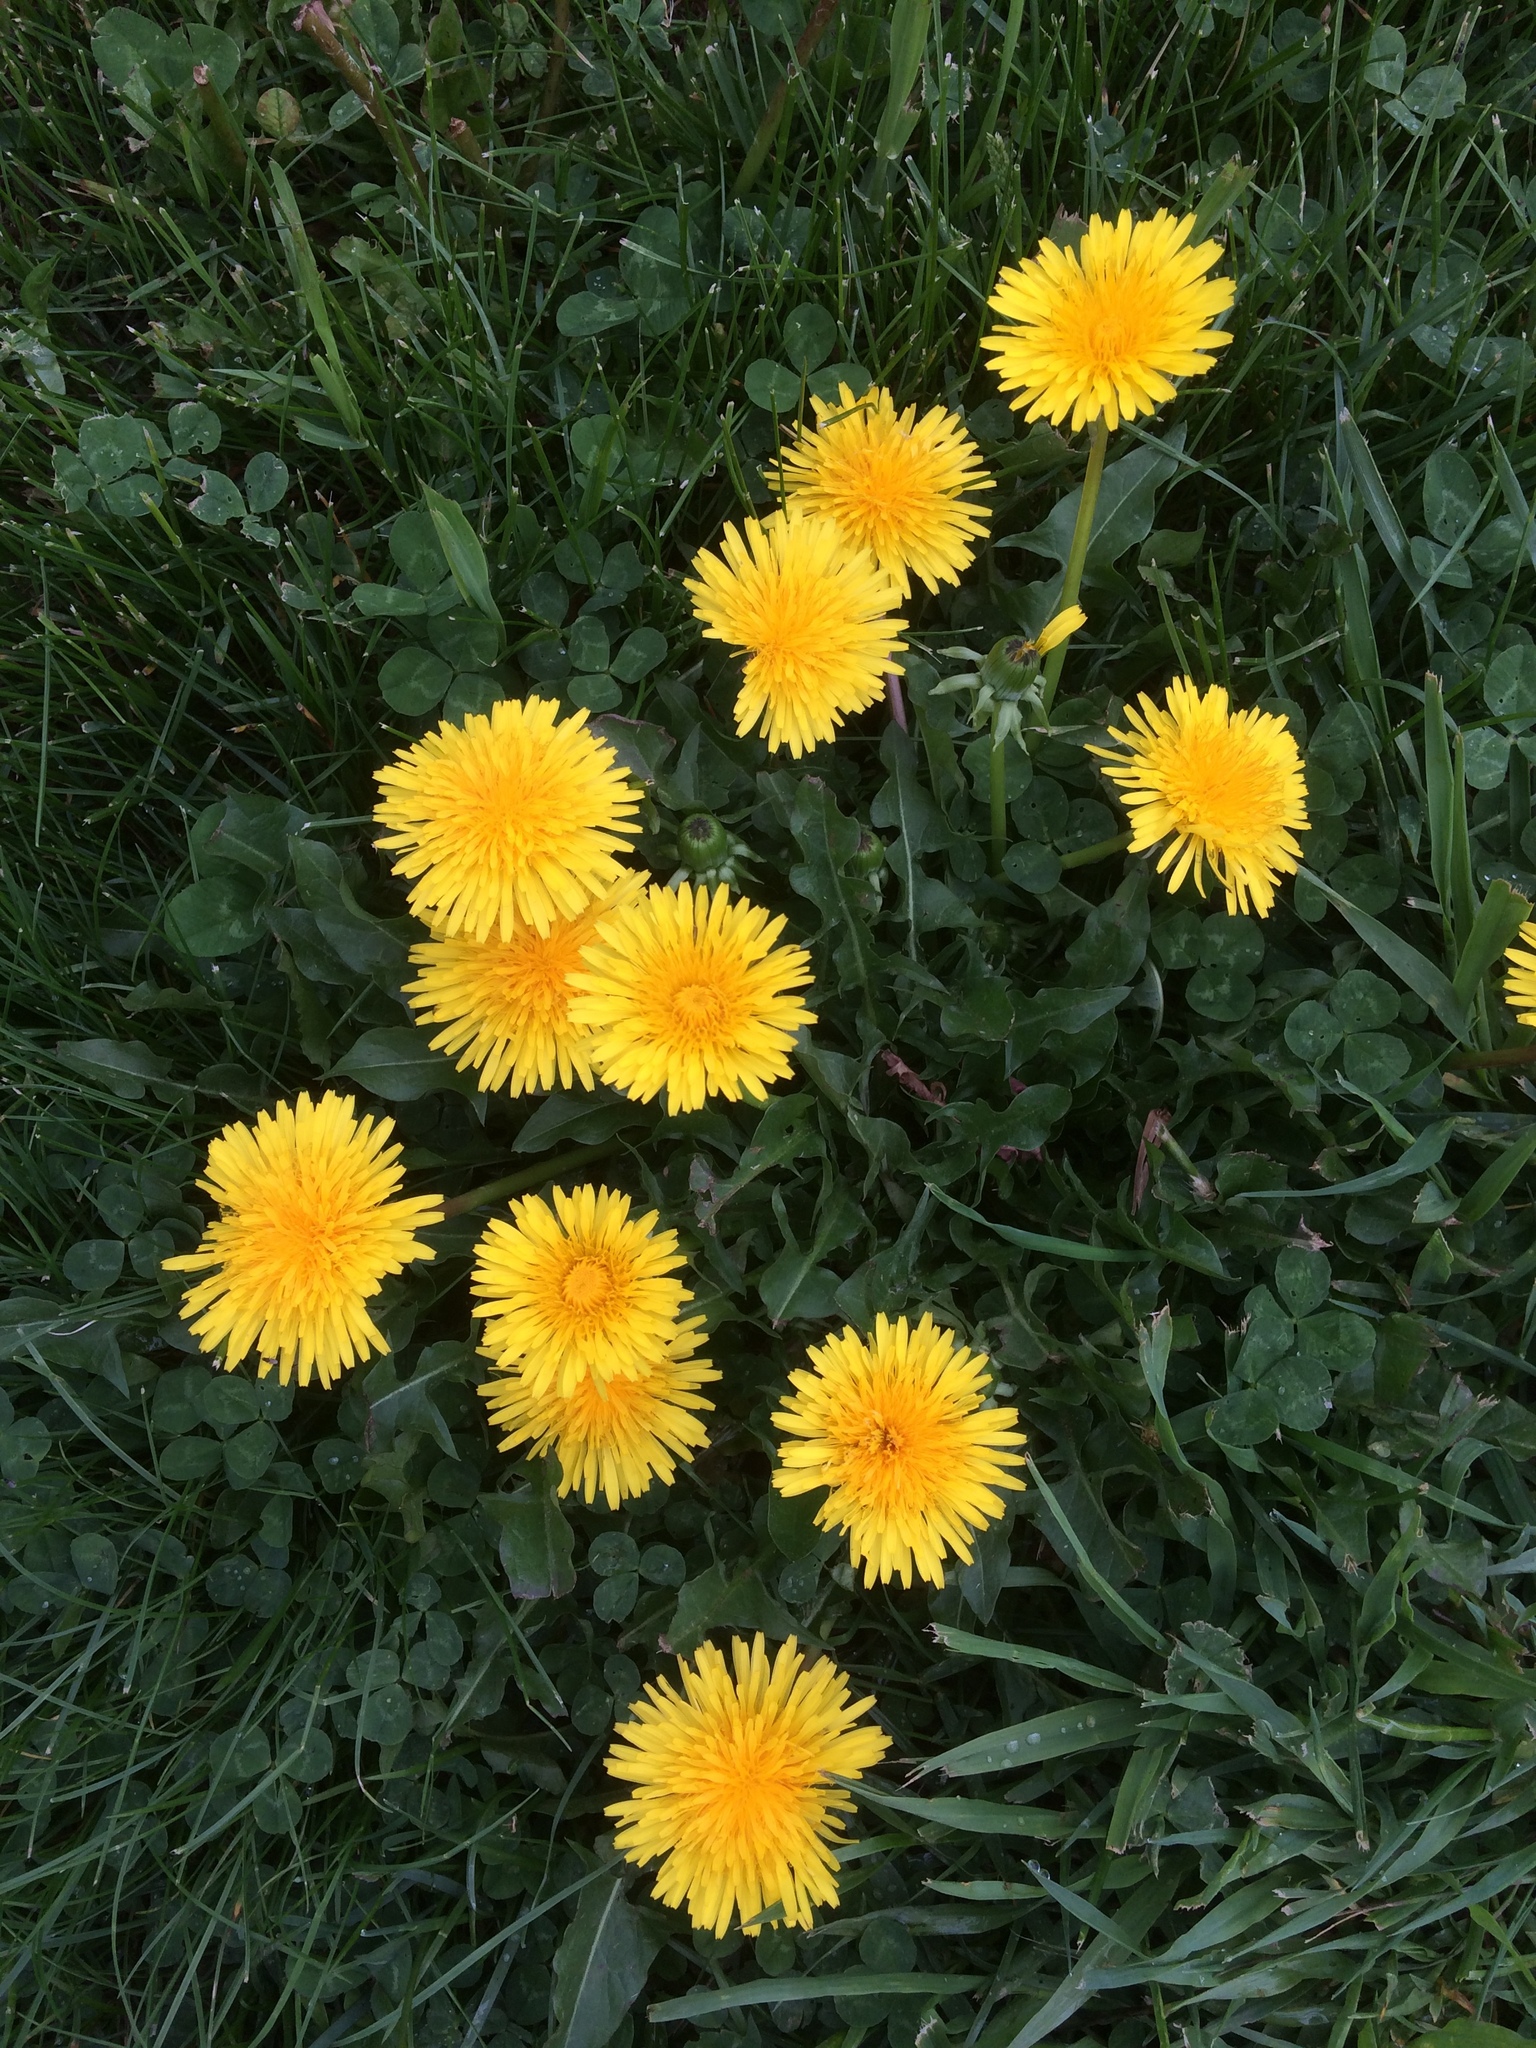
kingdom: Plantae
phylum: Tracheophyta
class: Magnoliopsida
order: Asterales
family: Asteraceae
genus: Taraxacum
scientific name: Taraxacum officinale
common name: Common dandelion
